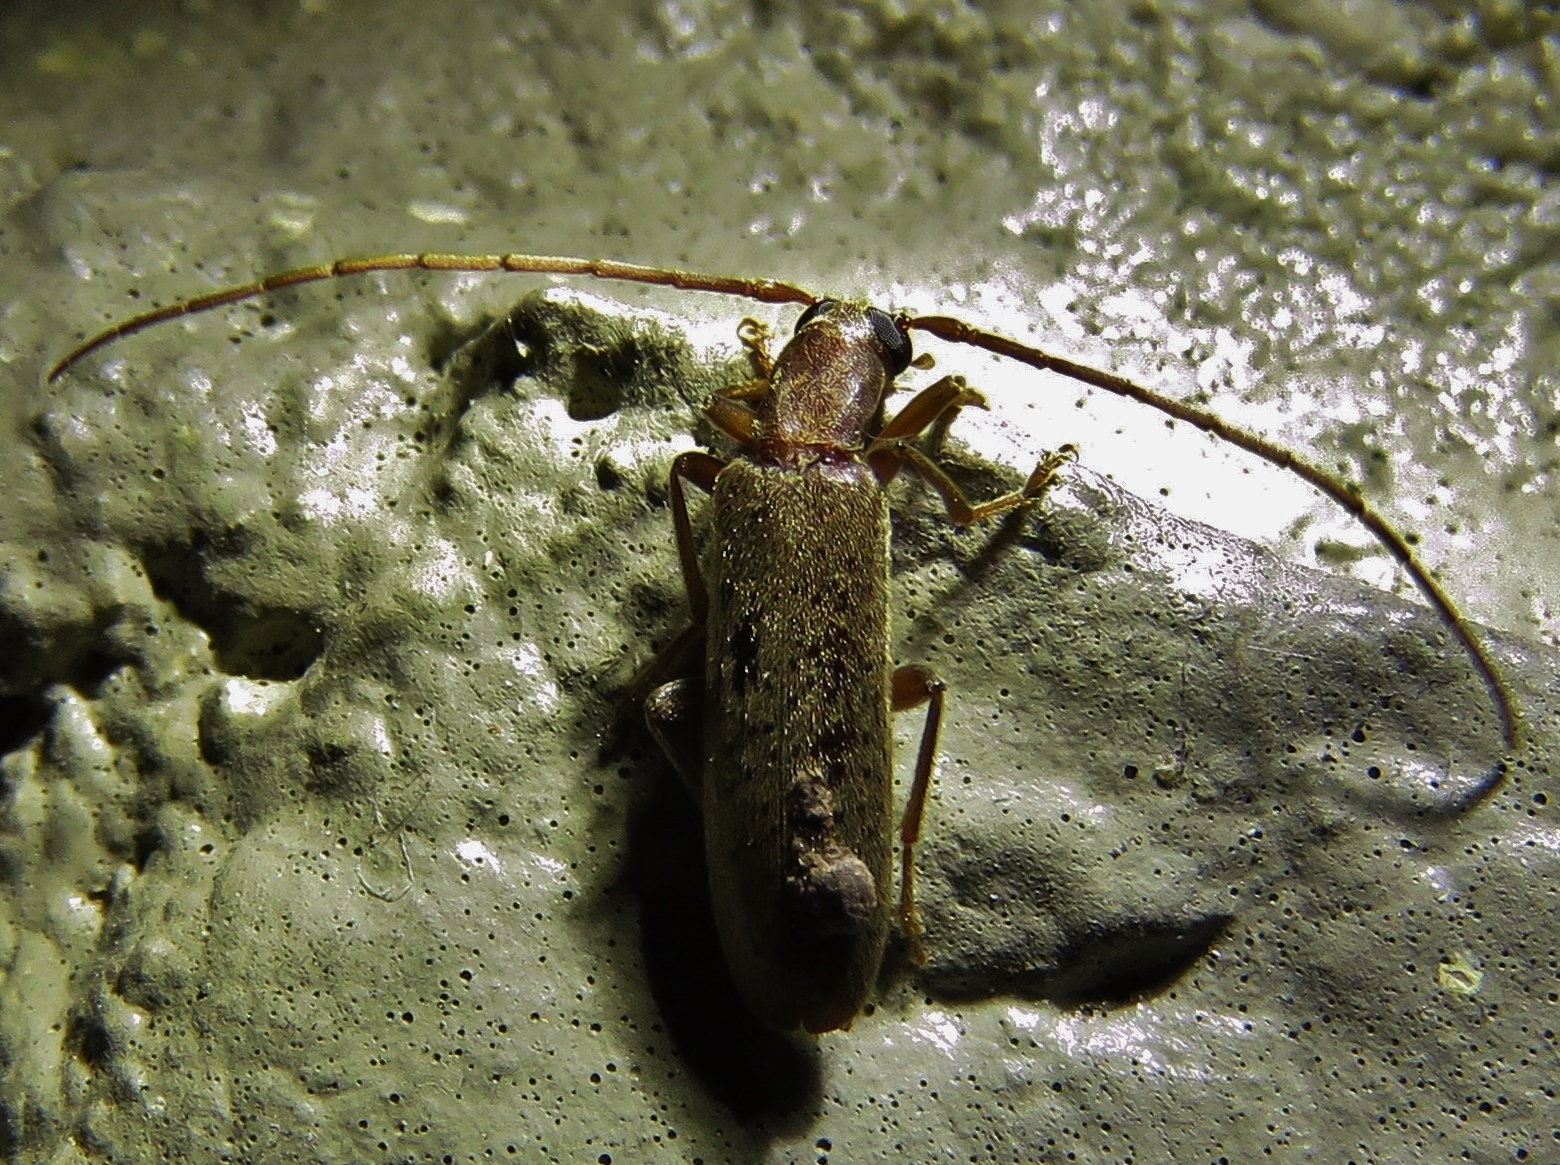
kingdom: Animalia
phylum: Arthropoda
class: Insecta
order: Coleoptera
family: Oedemeridae
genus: Sparedrus
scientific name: Sparedrus aspersus
